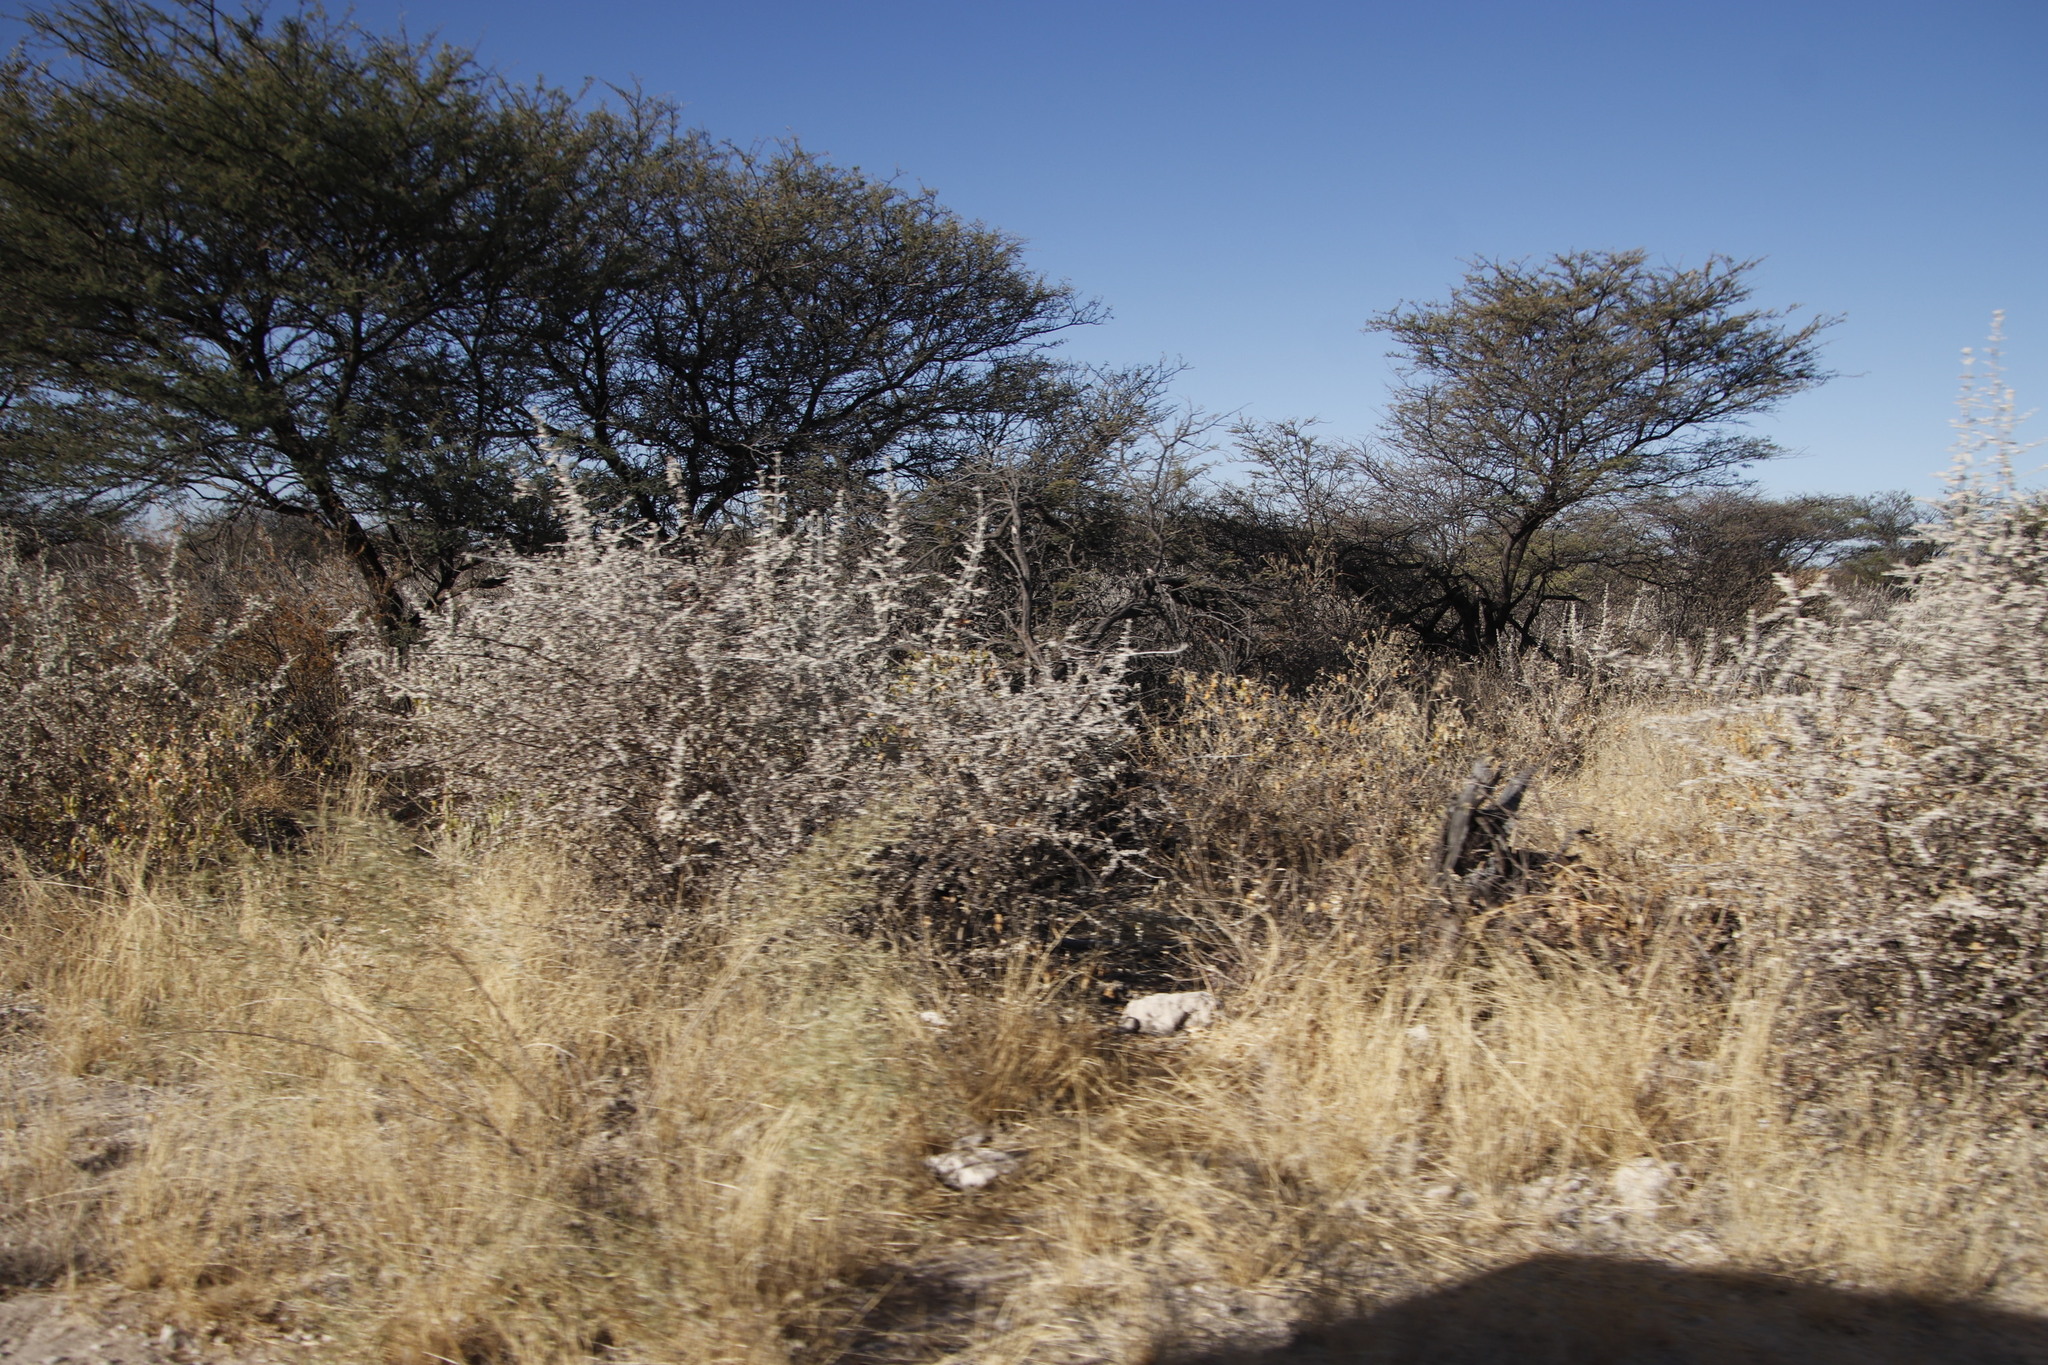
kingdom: Plantae
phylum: Tracheophyta
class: Magnoliopsida
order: Lamiales
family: Bignoniaceae
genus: Catophractes
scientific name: Catophractes alexandri
